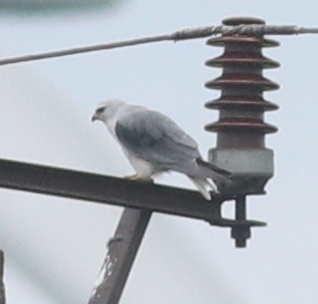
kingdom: Animalia
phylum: Chordata
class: Aves
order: Accipitriformes
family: Accipitridae
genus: Elanus
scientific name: Elanus caeruleus
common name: Black-winged kite
